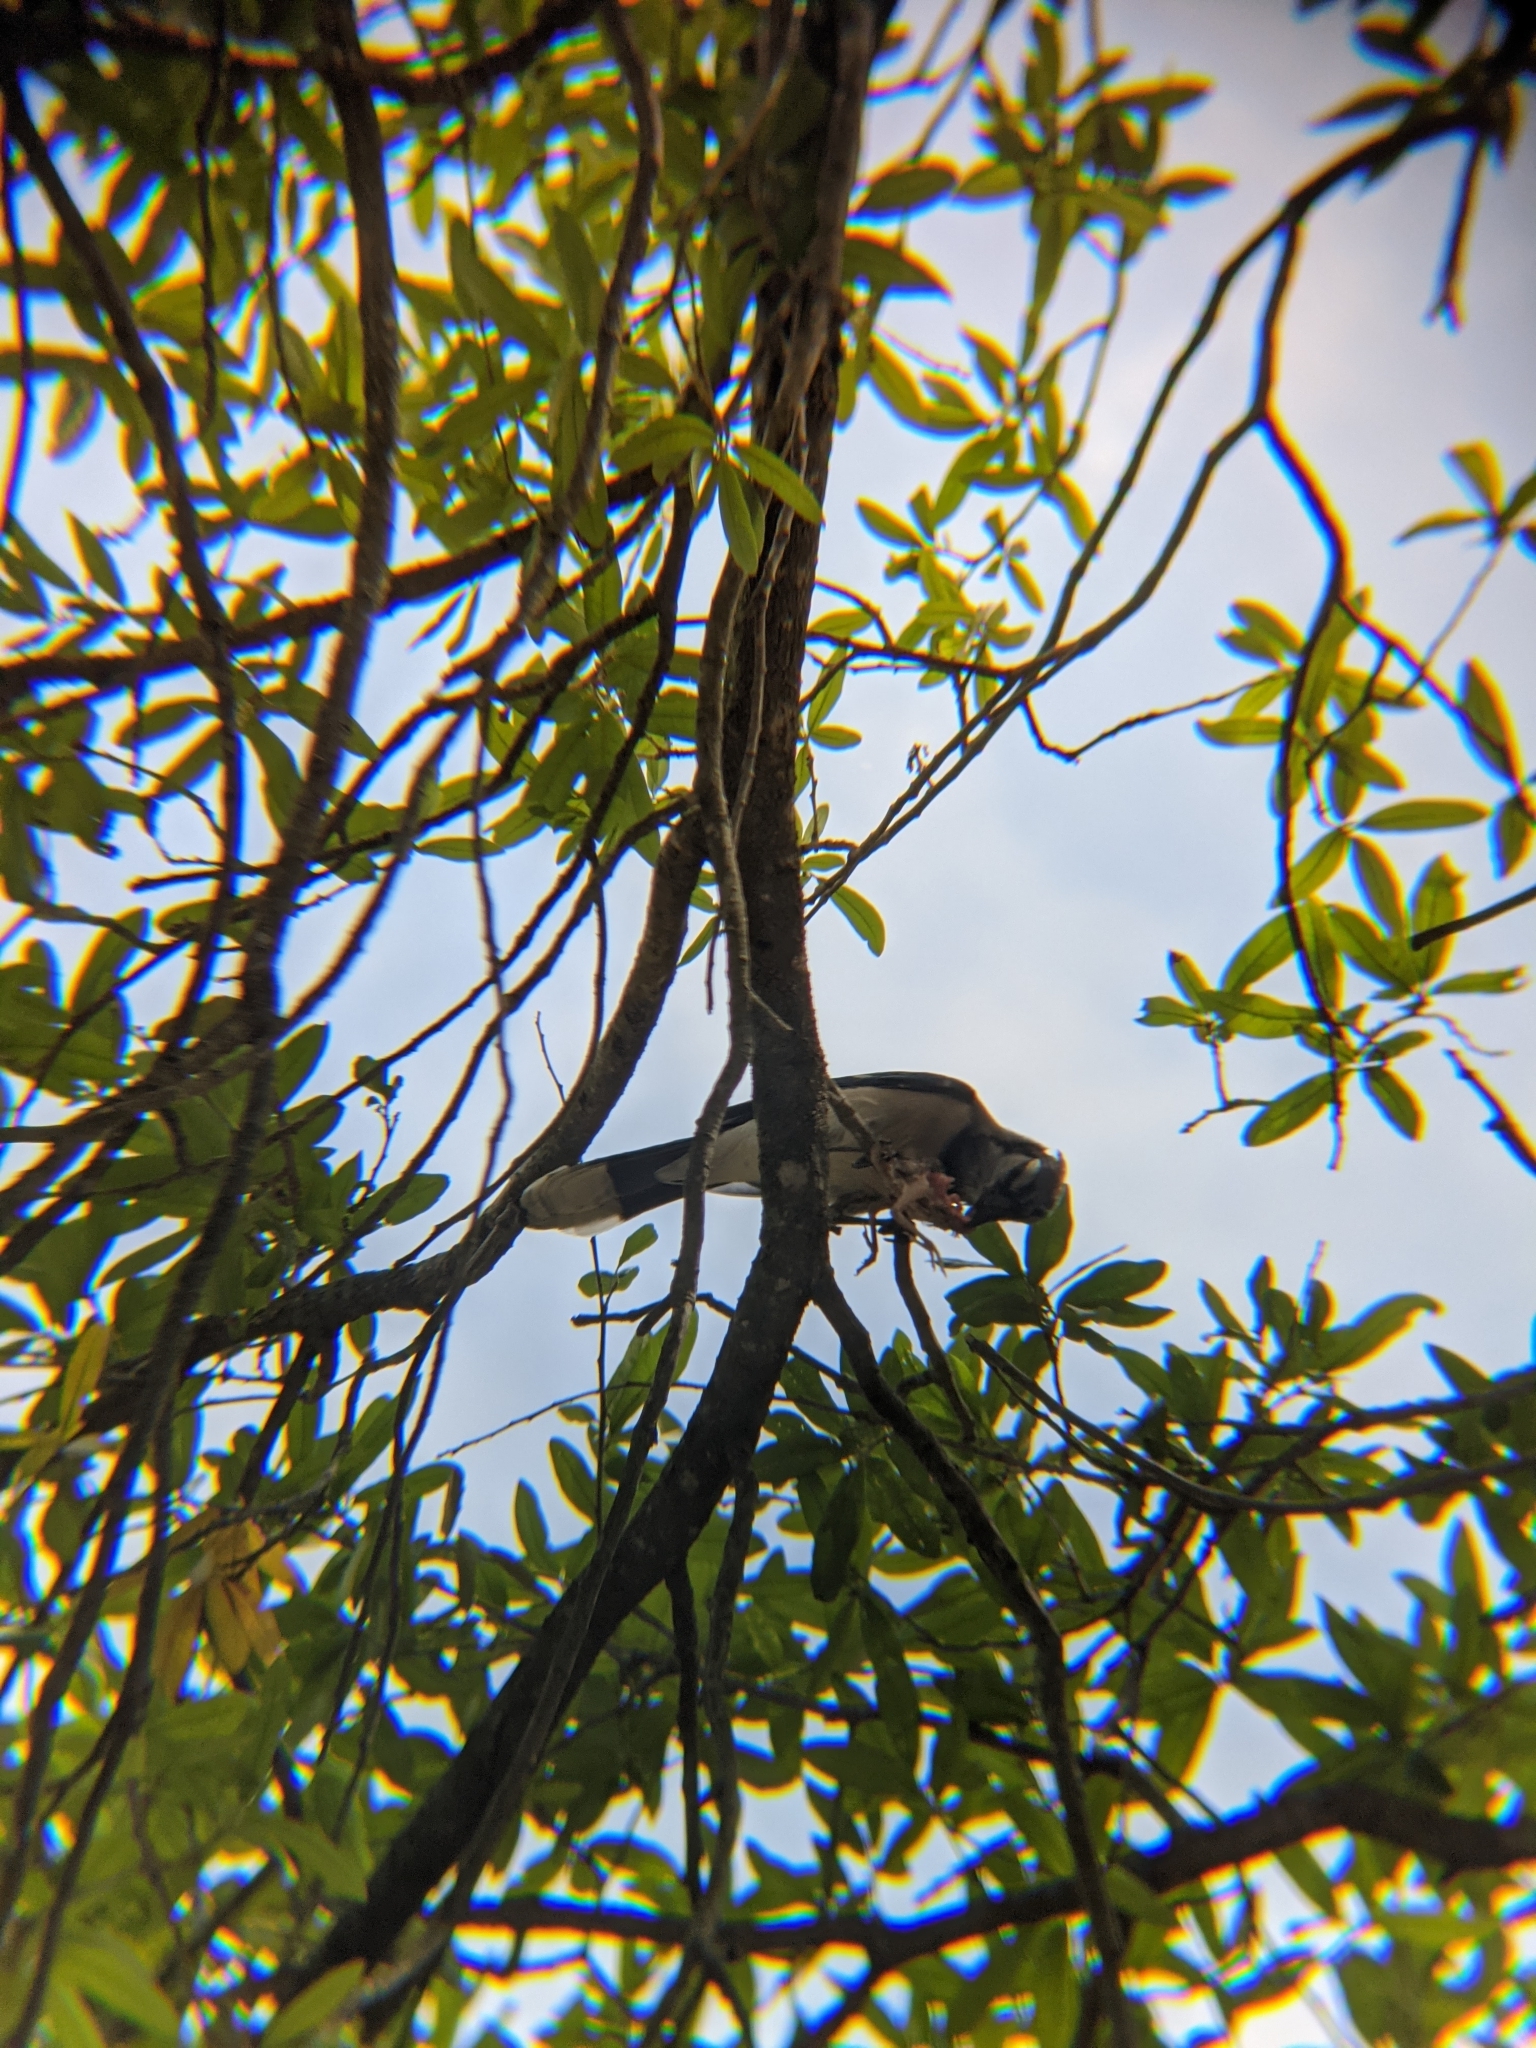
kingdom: Animalia
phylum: Chordata
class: Aves
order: Passeriformes
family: Corvidae
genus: Cyanocitta
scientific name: Cyanocitta cristata
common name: Blue jay
